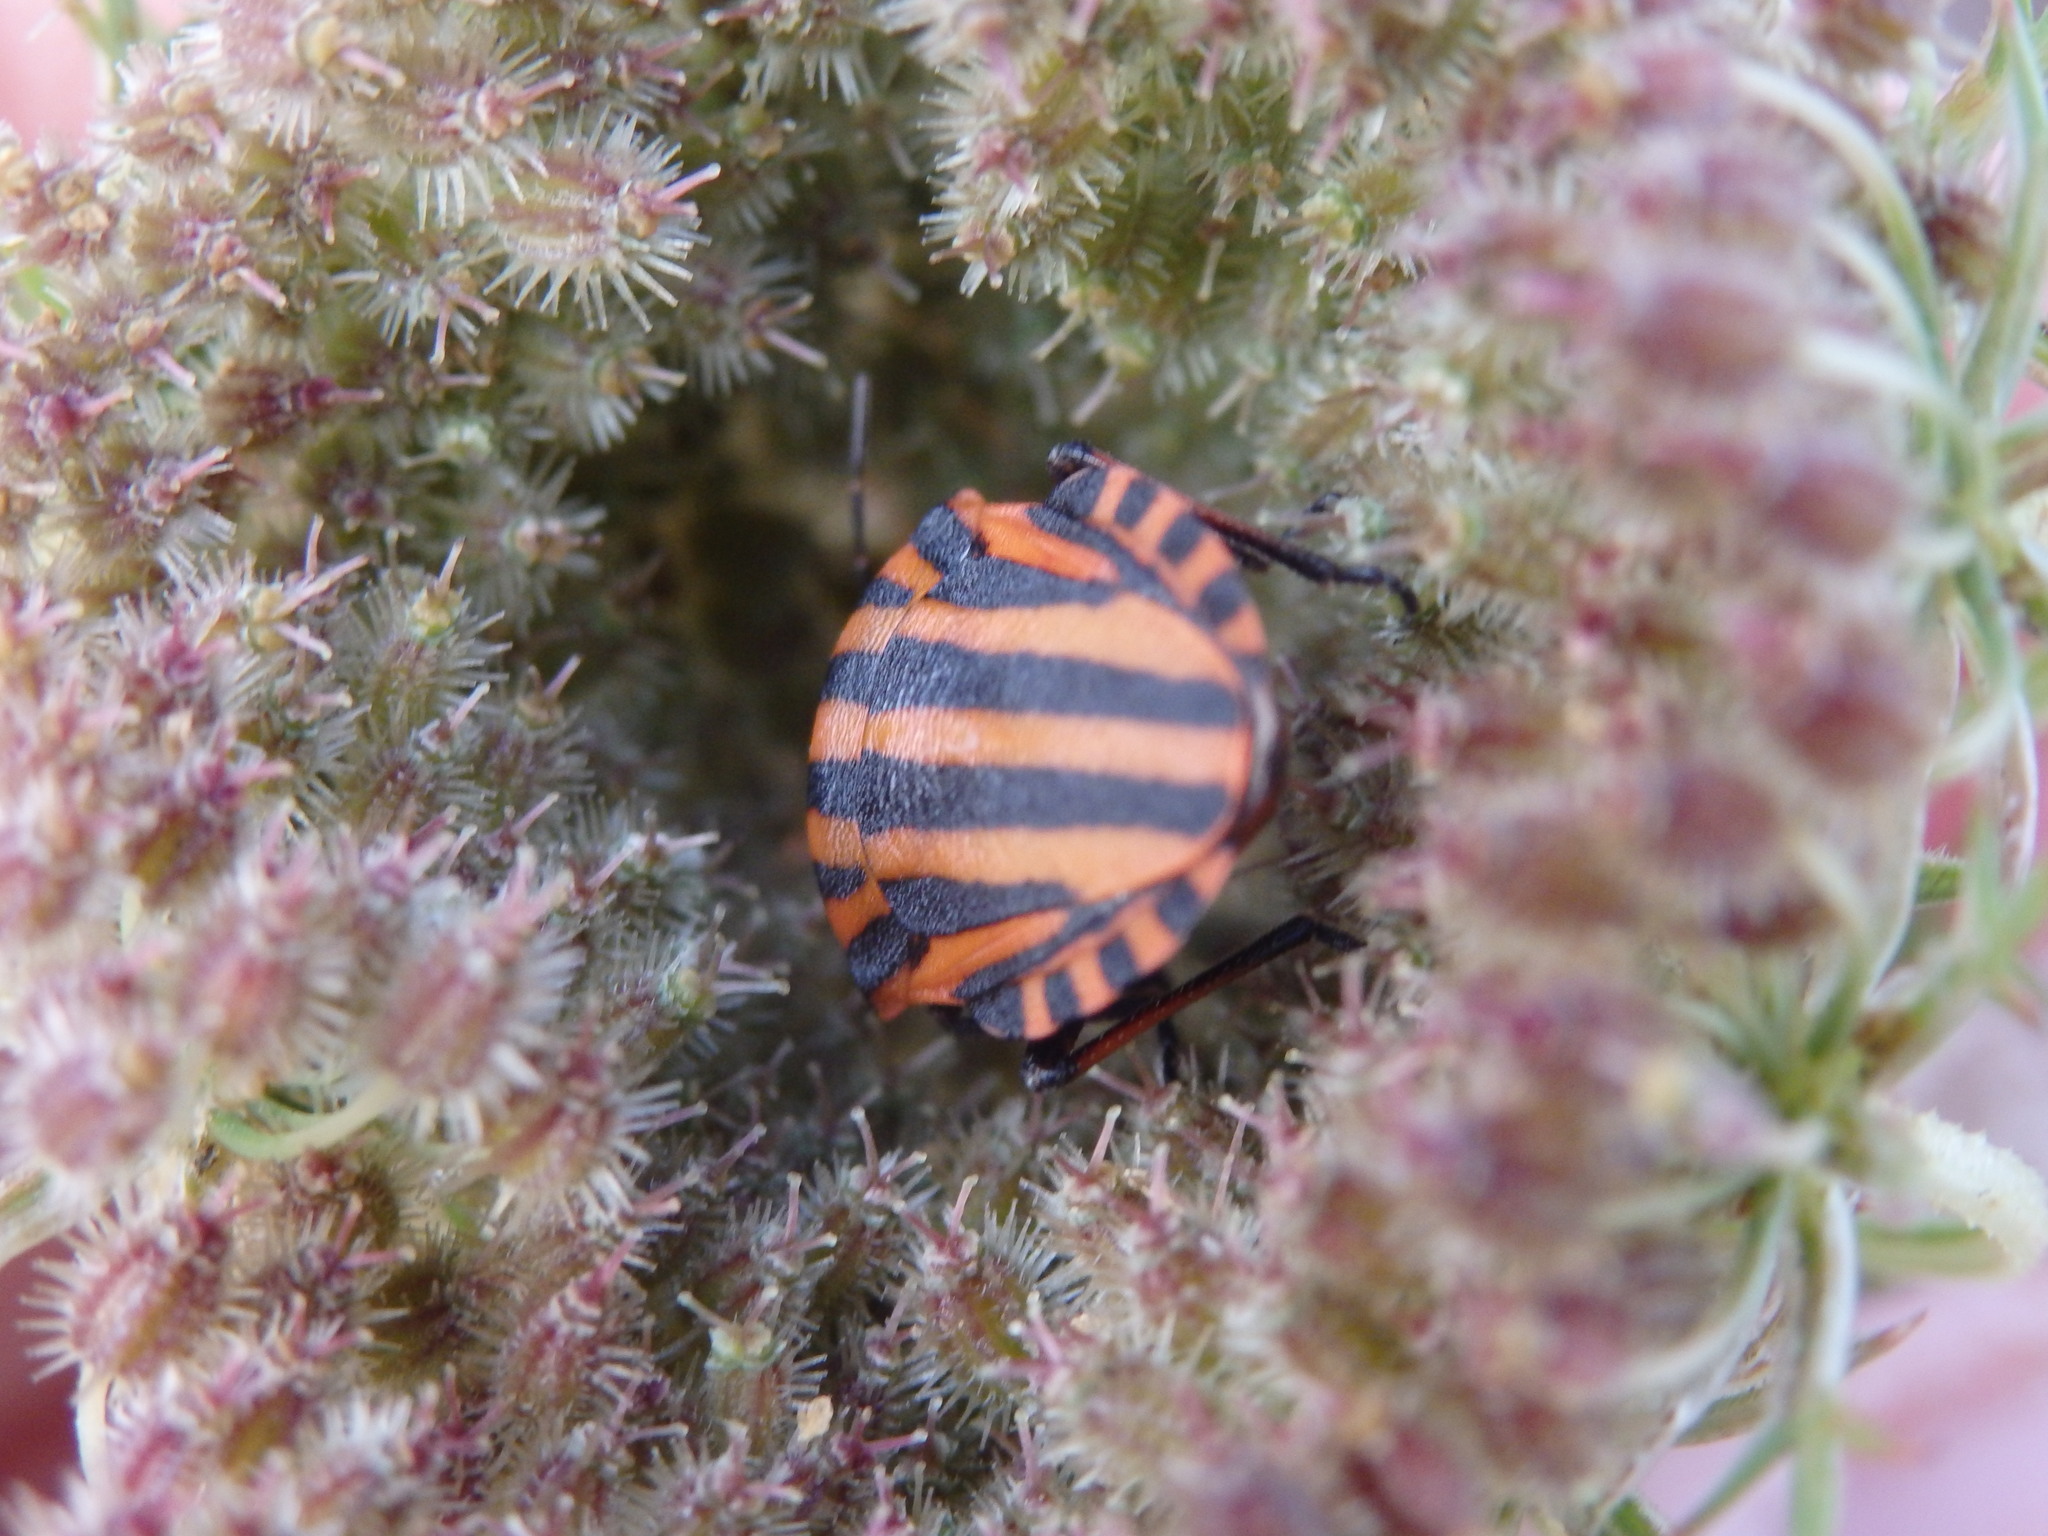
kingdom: Animalia
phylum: Arthropoda
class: Insecta
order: Hemiptera
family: Pentatomidae
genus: Graphosoma
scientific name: Graphosoma italicum
